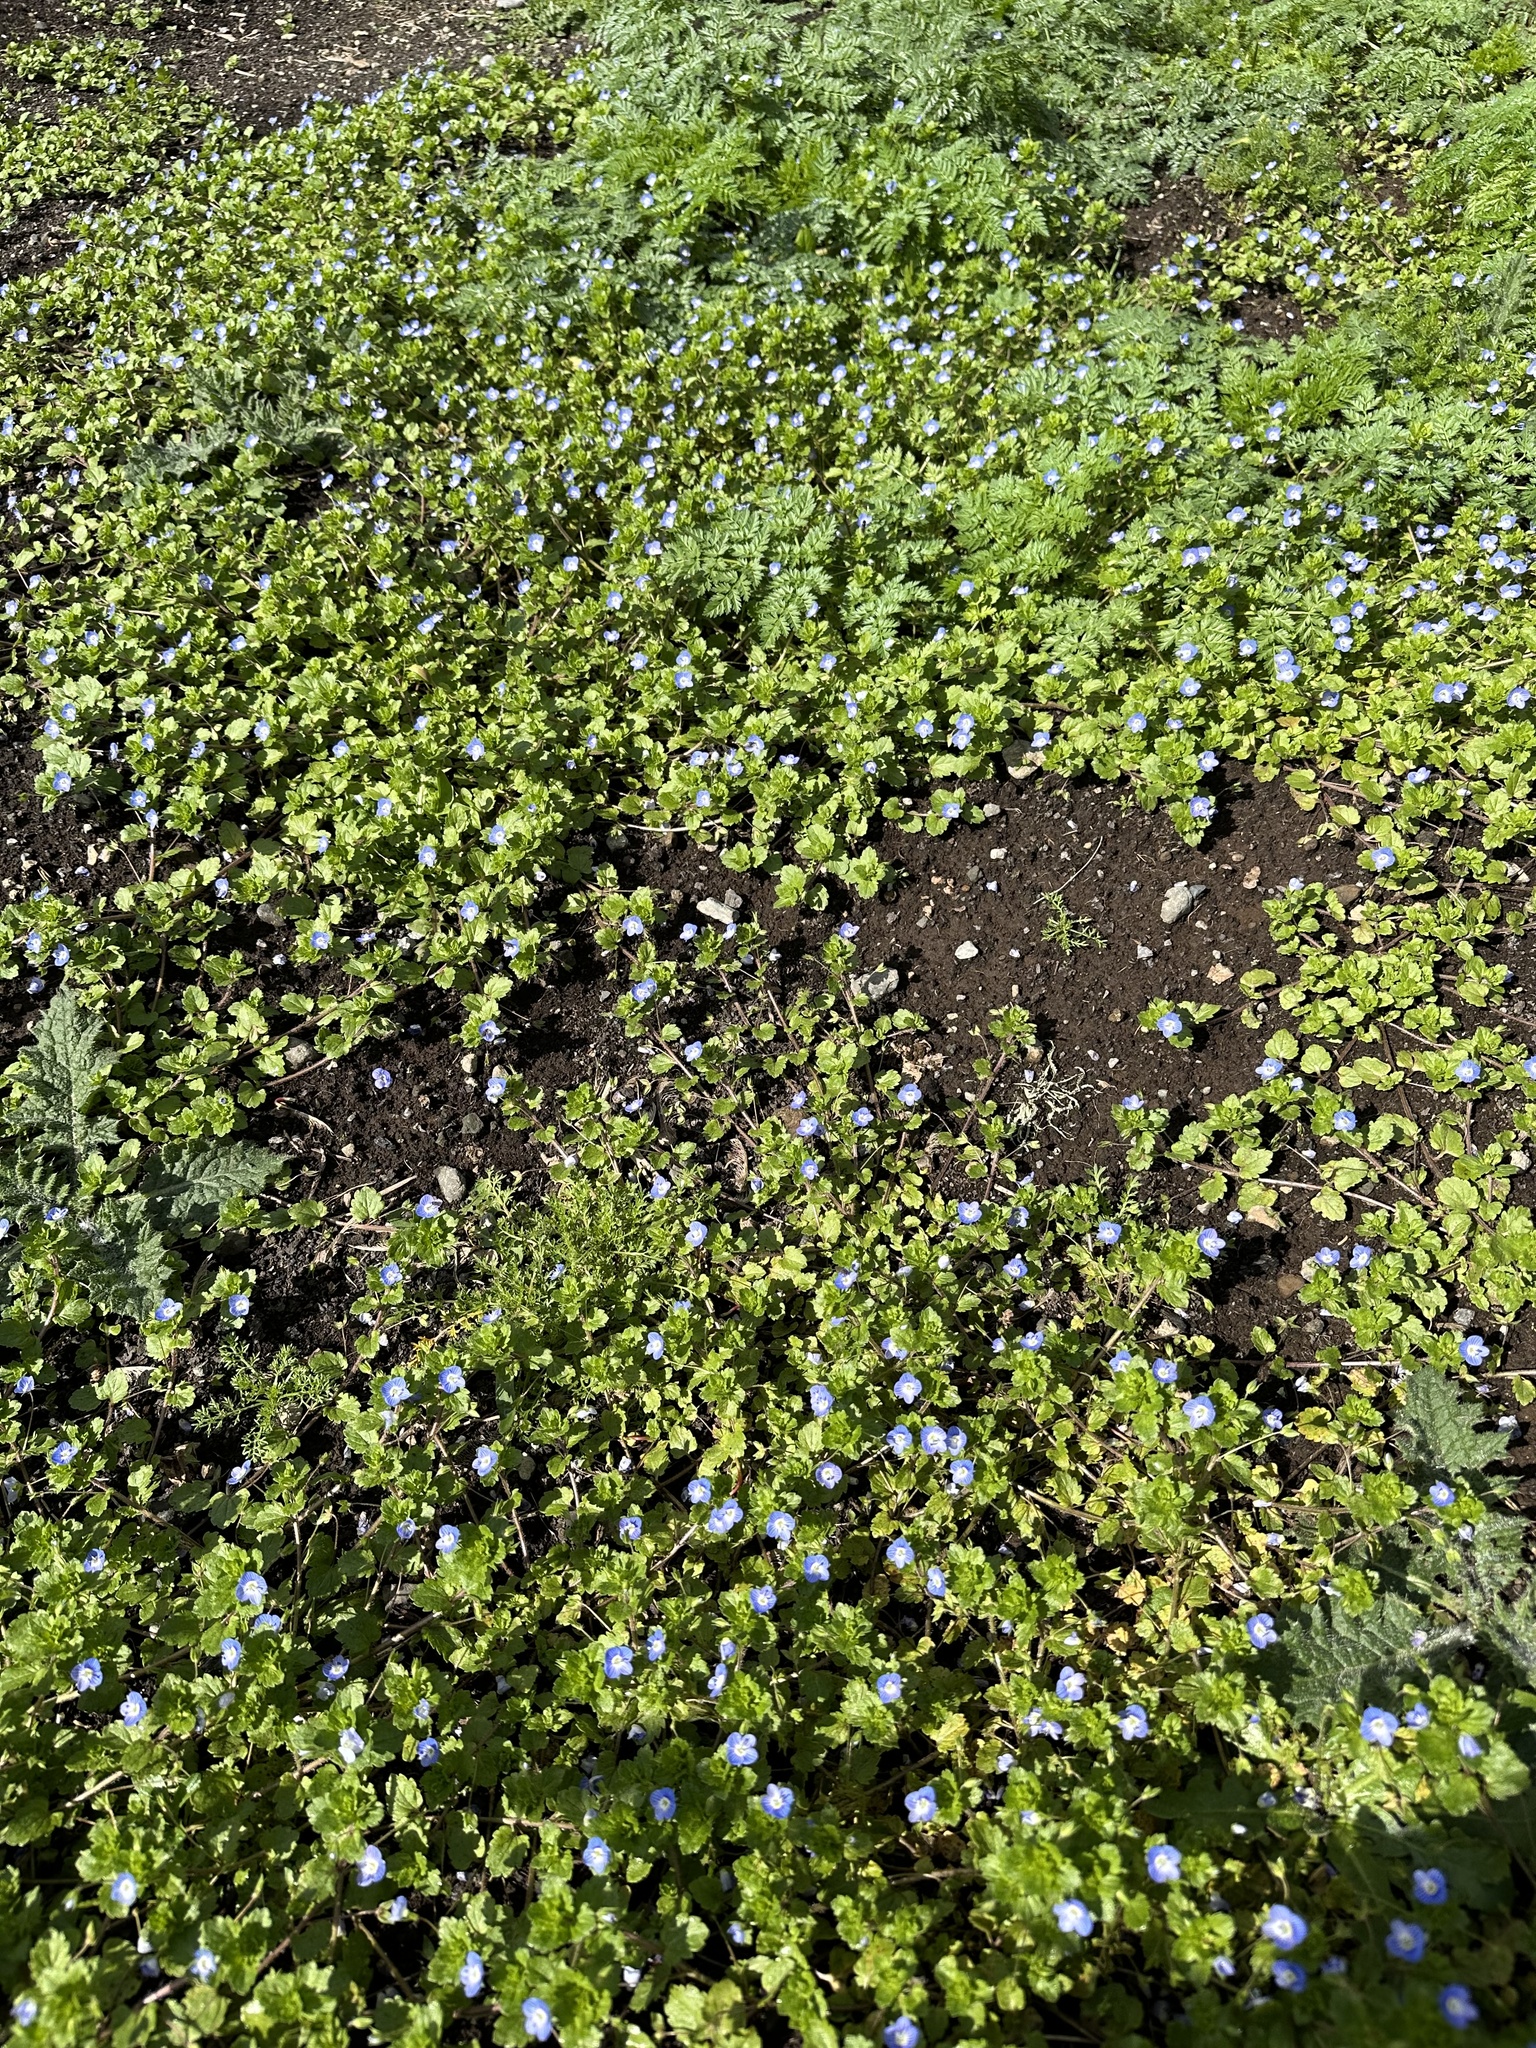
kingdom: Plantae
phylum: Tracheophyta
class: Magnoliopsida
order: Lamiales
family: Plantaginaceae
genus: Veronica
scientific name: Veronica persica
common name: Common field-speedwell
